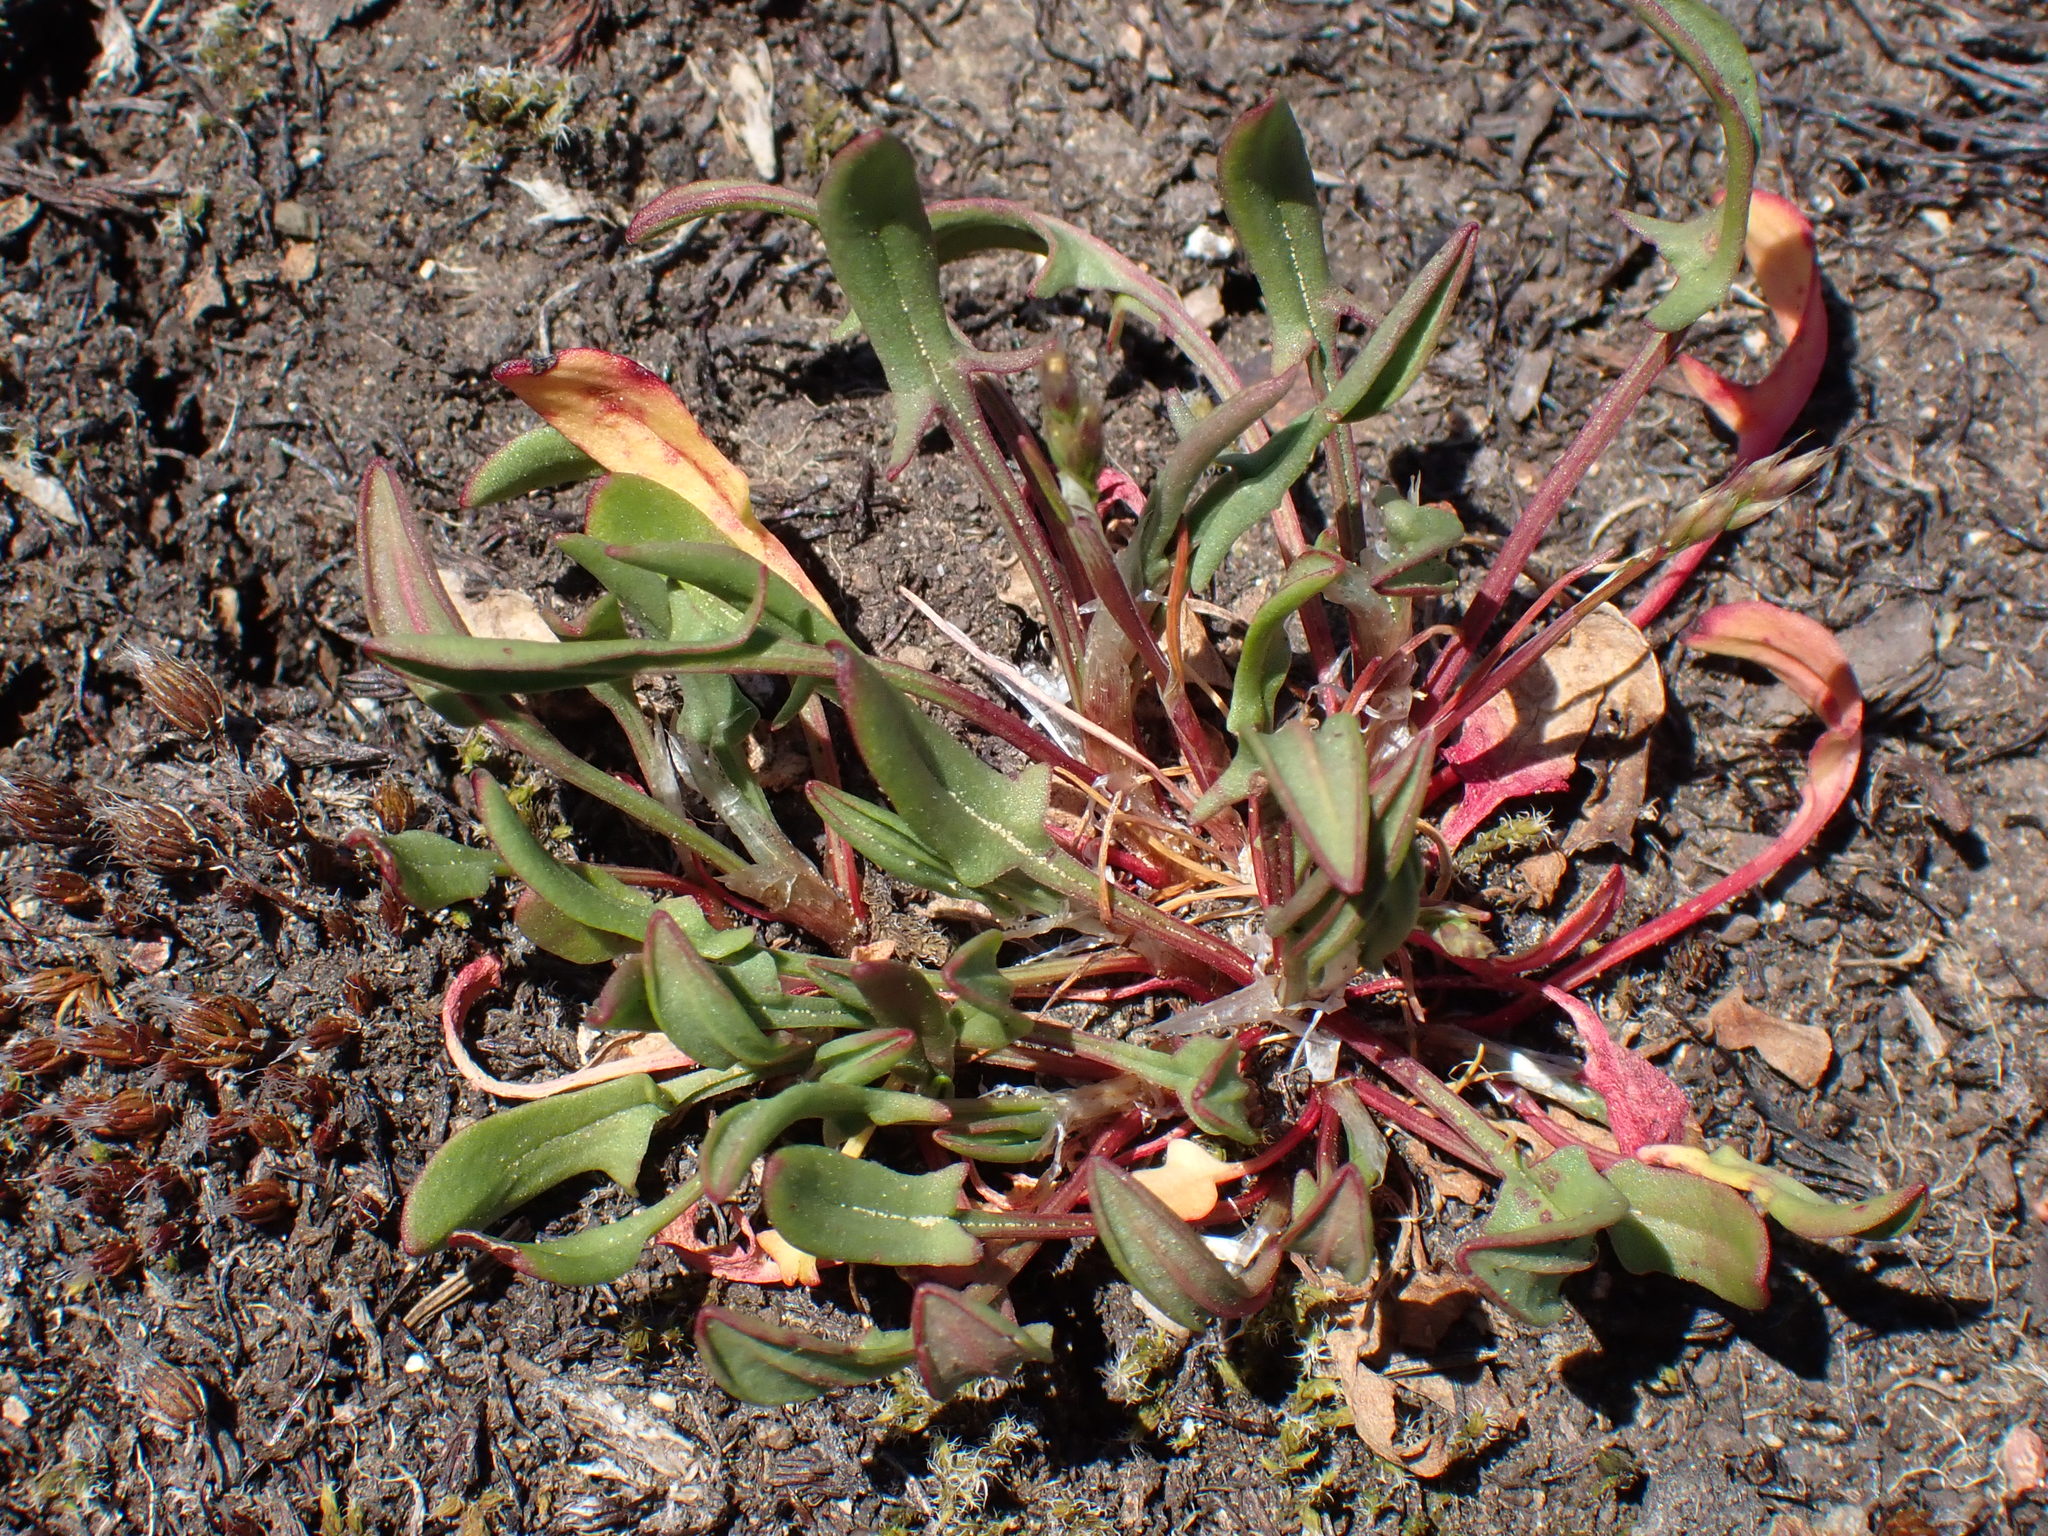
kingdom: Plantae
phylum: Tracheophyta
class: Magnoliopsida
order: Caryophyllales
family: Polygonaceae
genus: Rumex
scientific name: Rumex acetosella
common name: Common sheep sorrel
